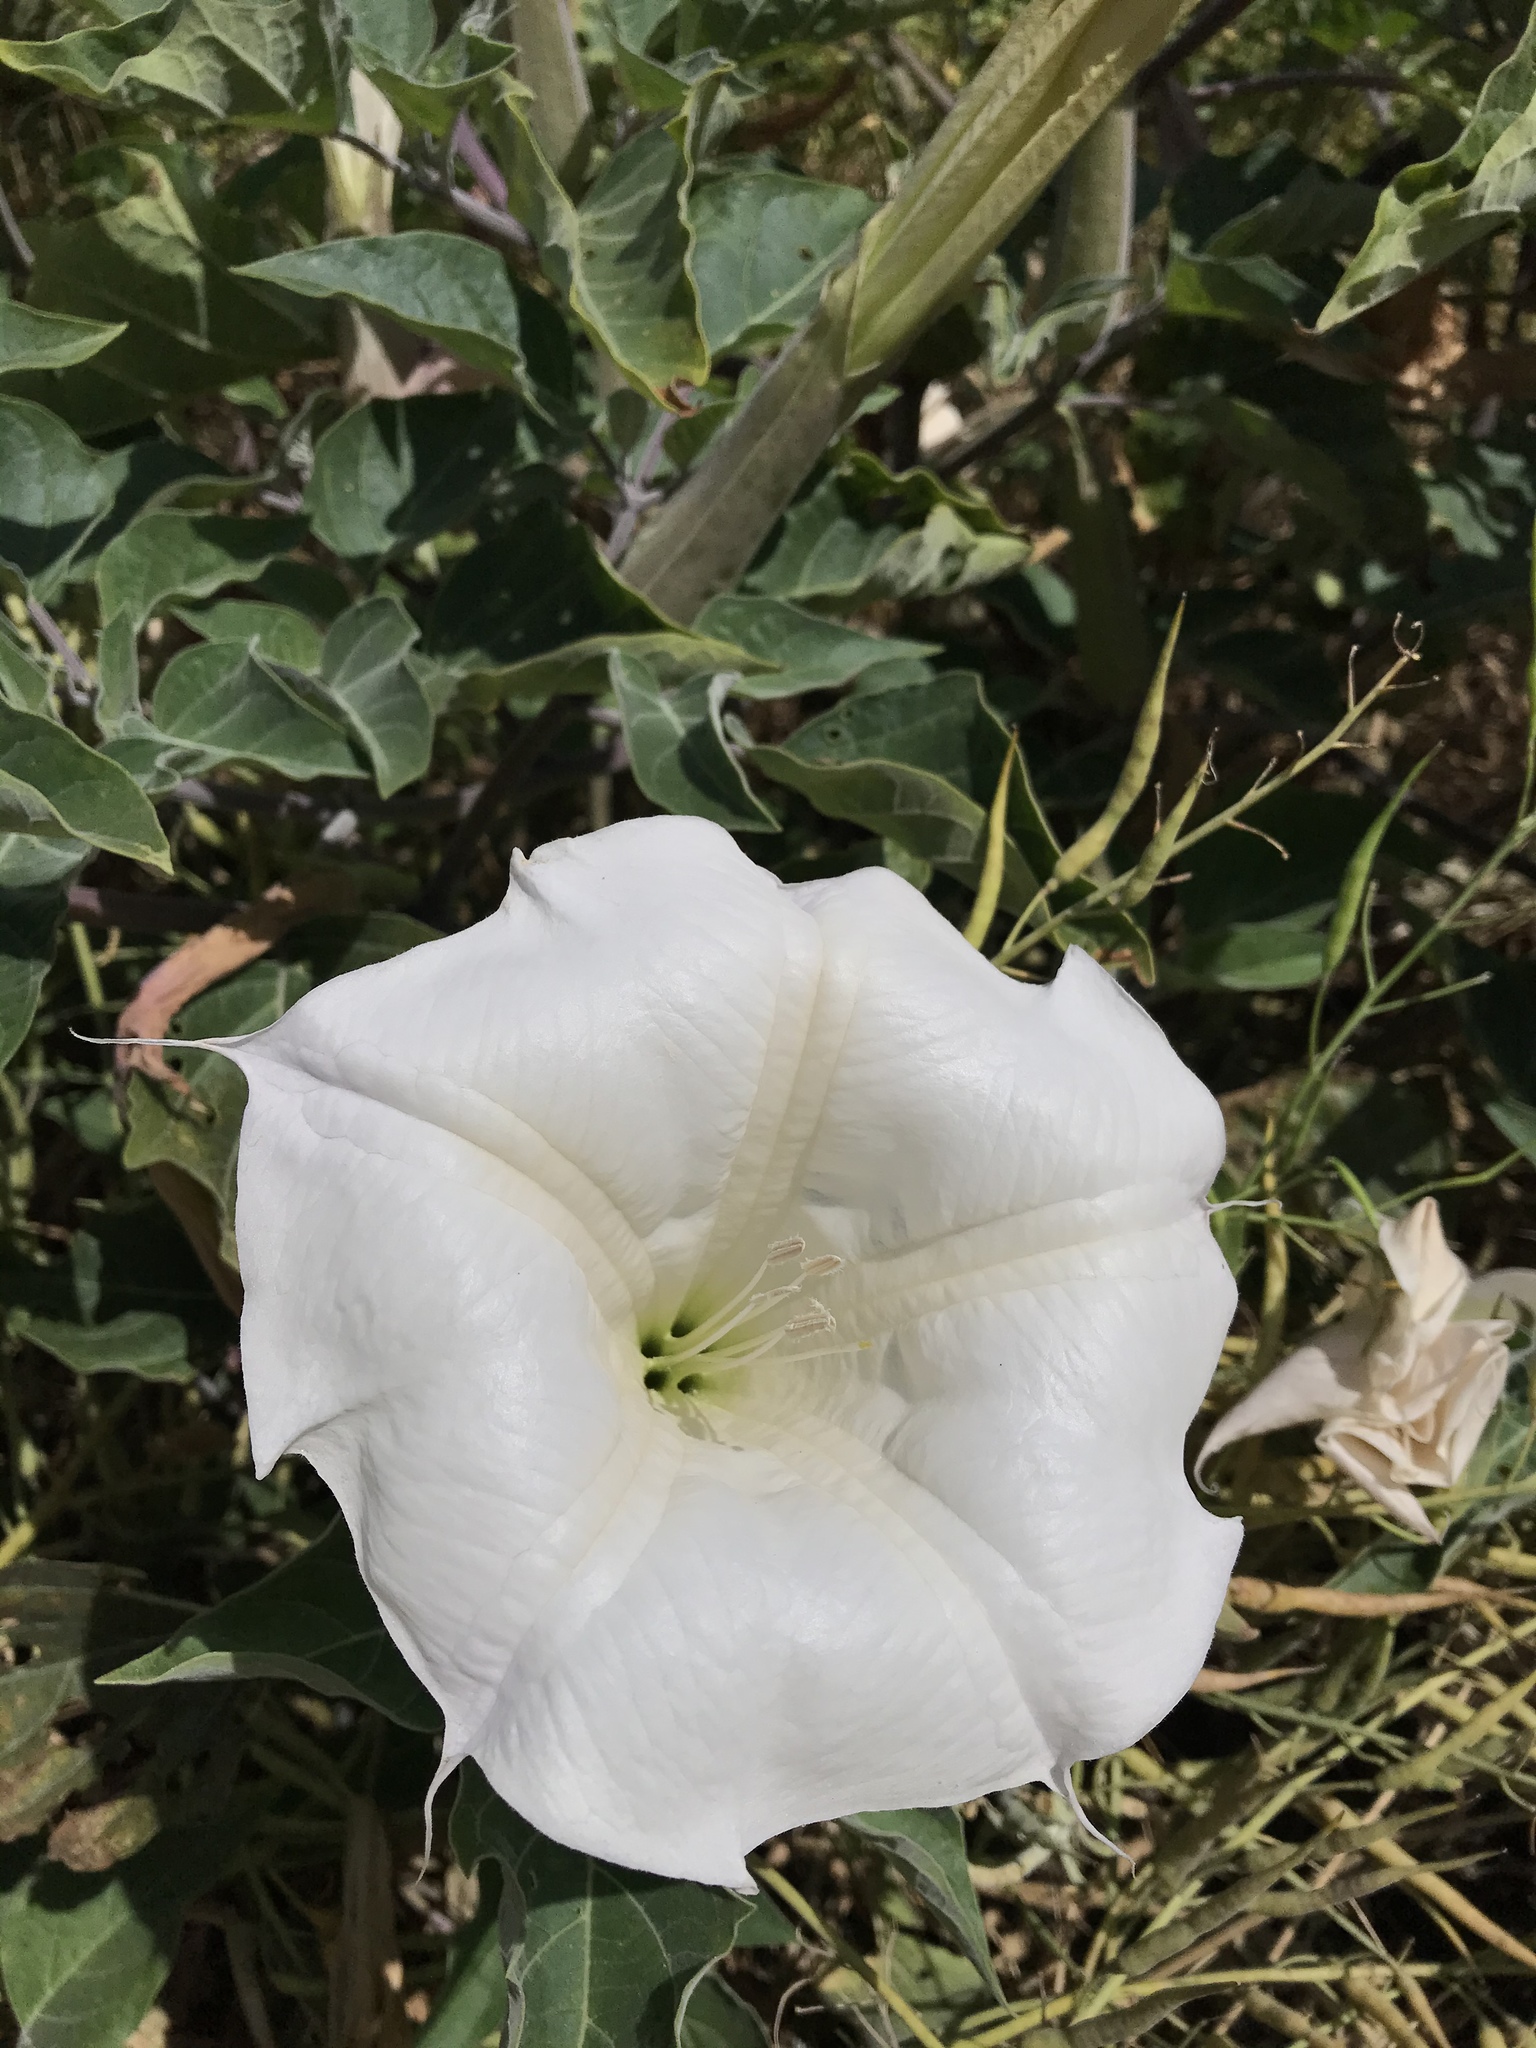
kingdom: Plantae
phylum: Tracheophyta
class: Magnoliopsida
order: Solanales
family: Solanaceae
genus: Datura
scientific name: Datura wrightii
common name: Sacred thorn-apple
